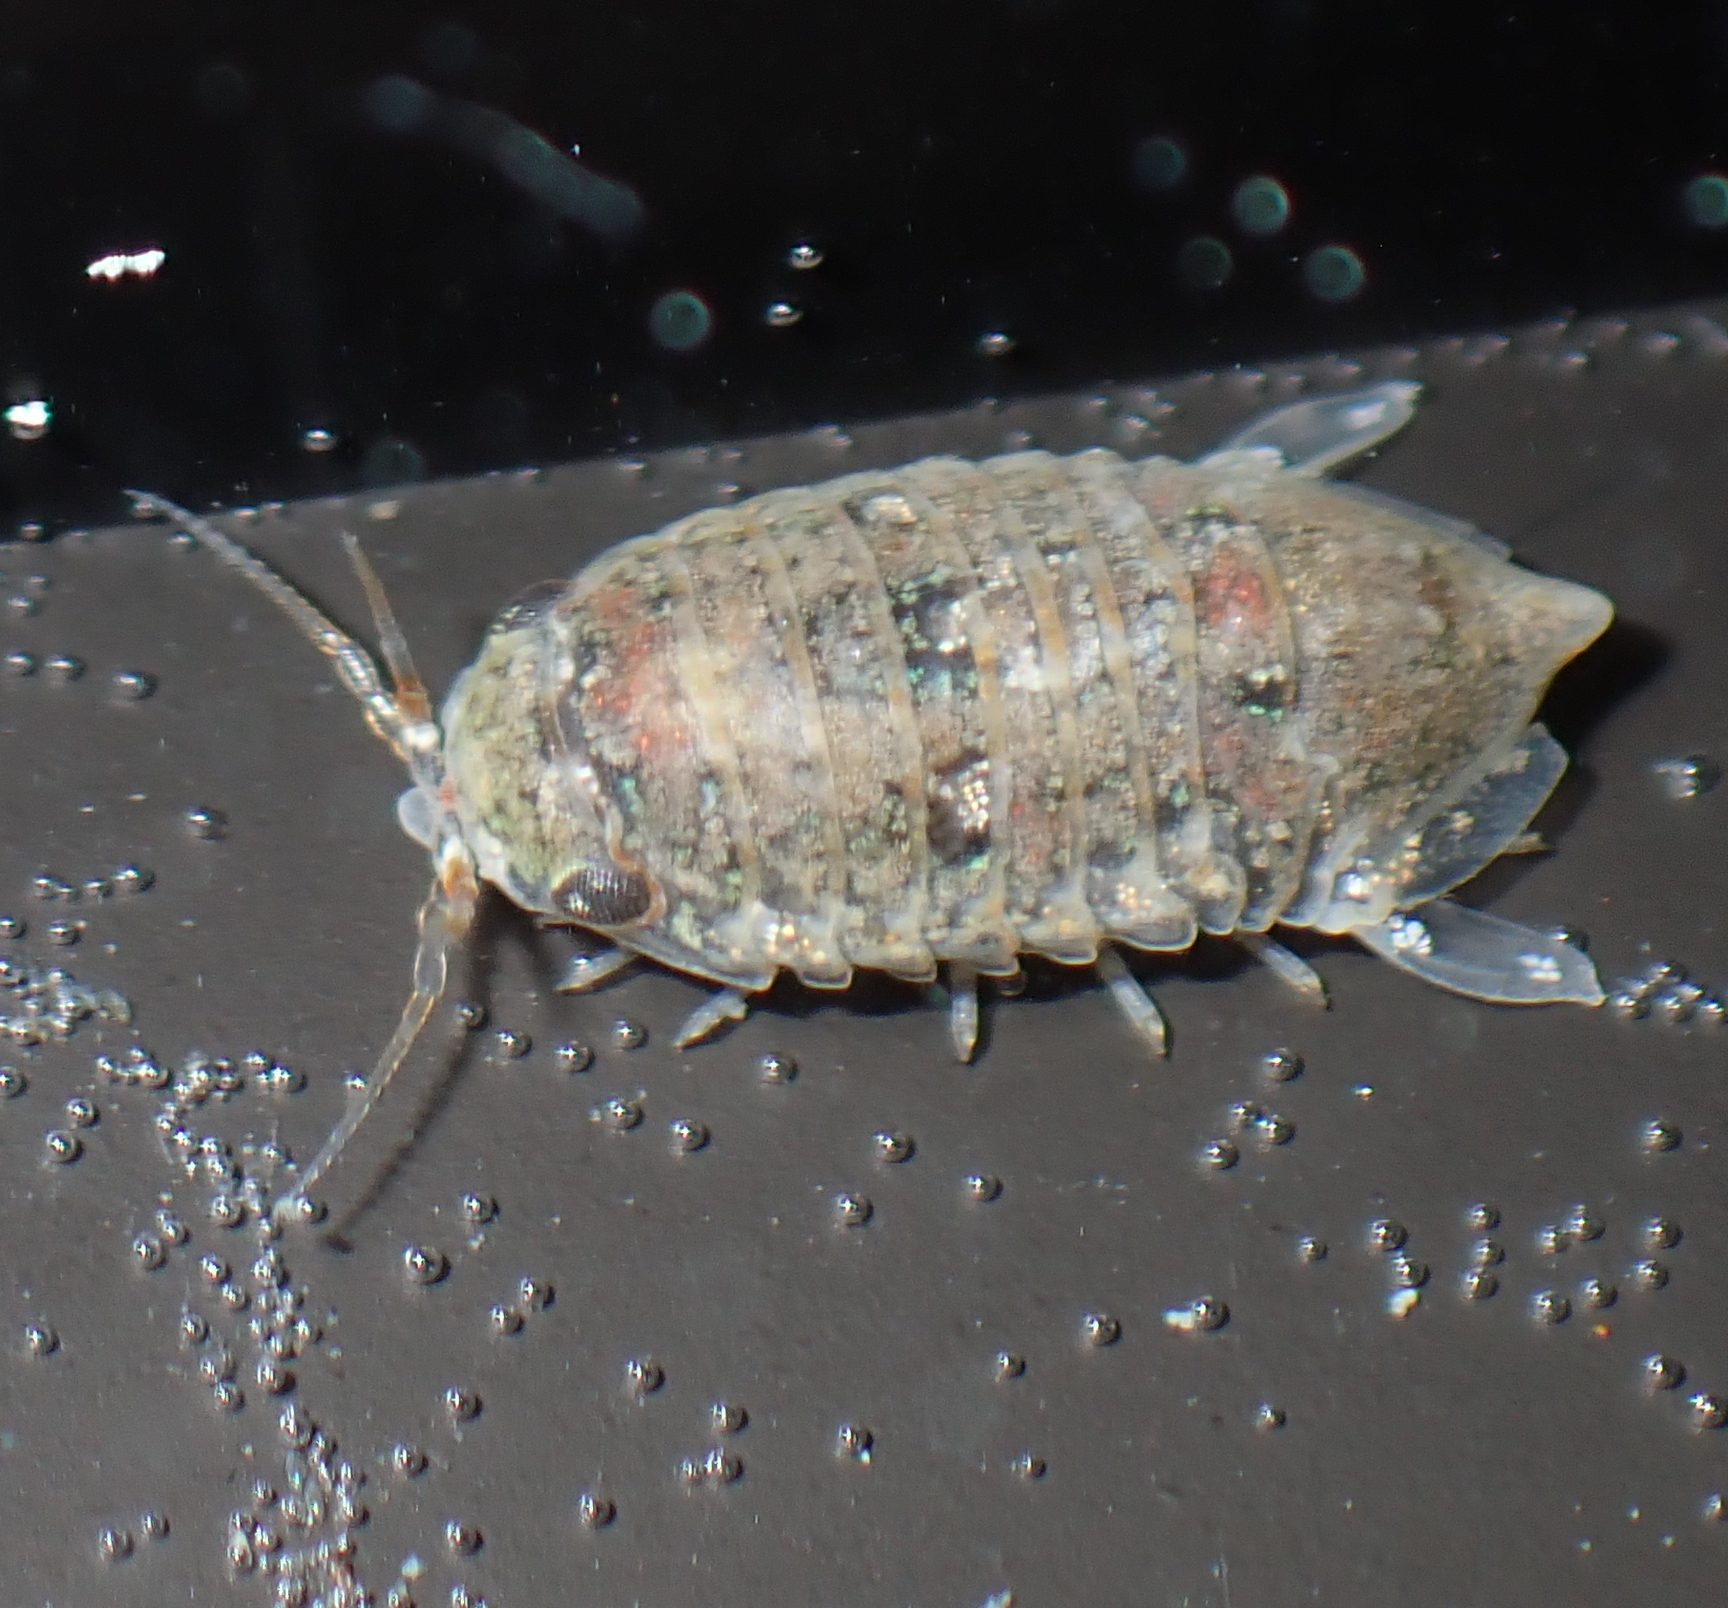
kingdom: Animalia
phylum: Arthropoda
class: Malacostraca
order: Isopoda
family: Sphaeromatidae
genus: Isocladus
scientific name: Isocladus armatus
